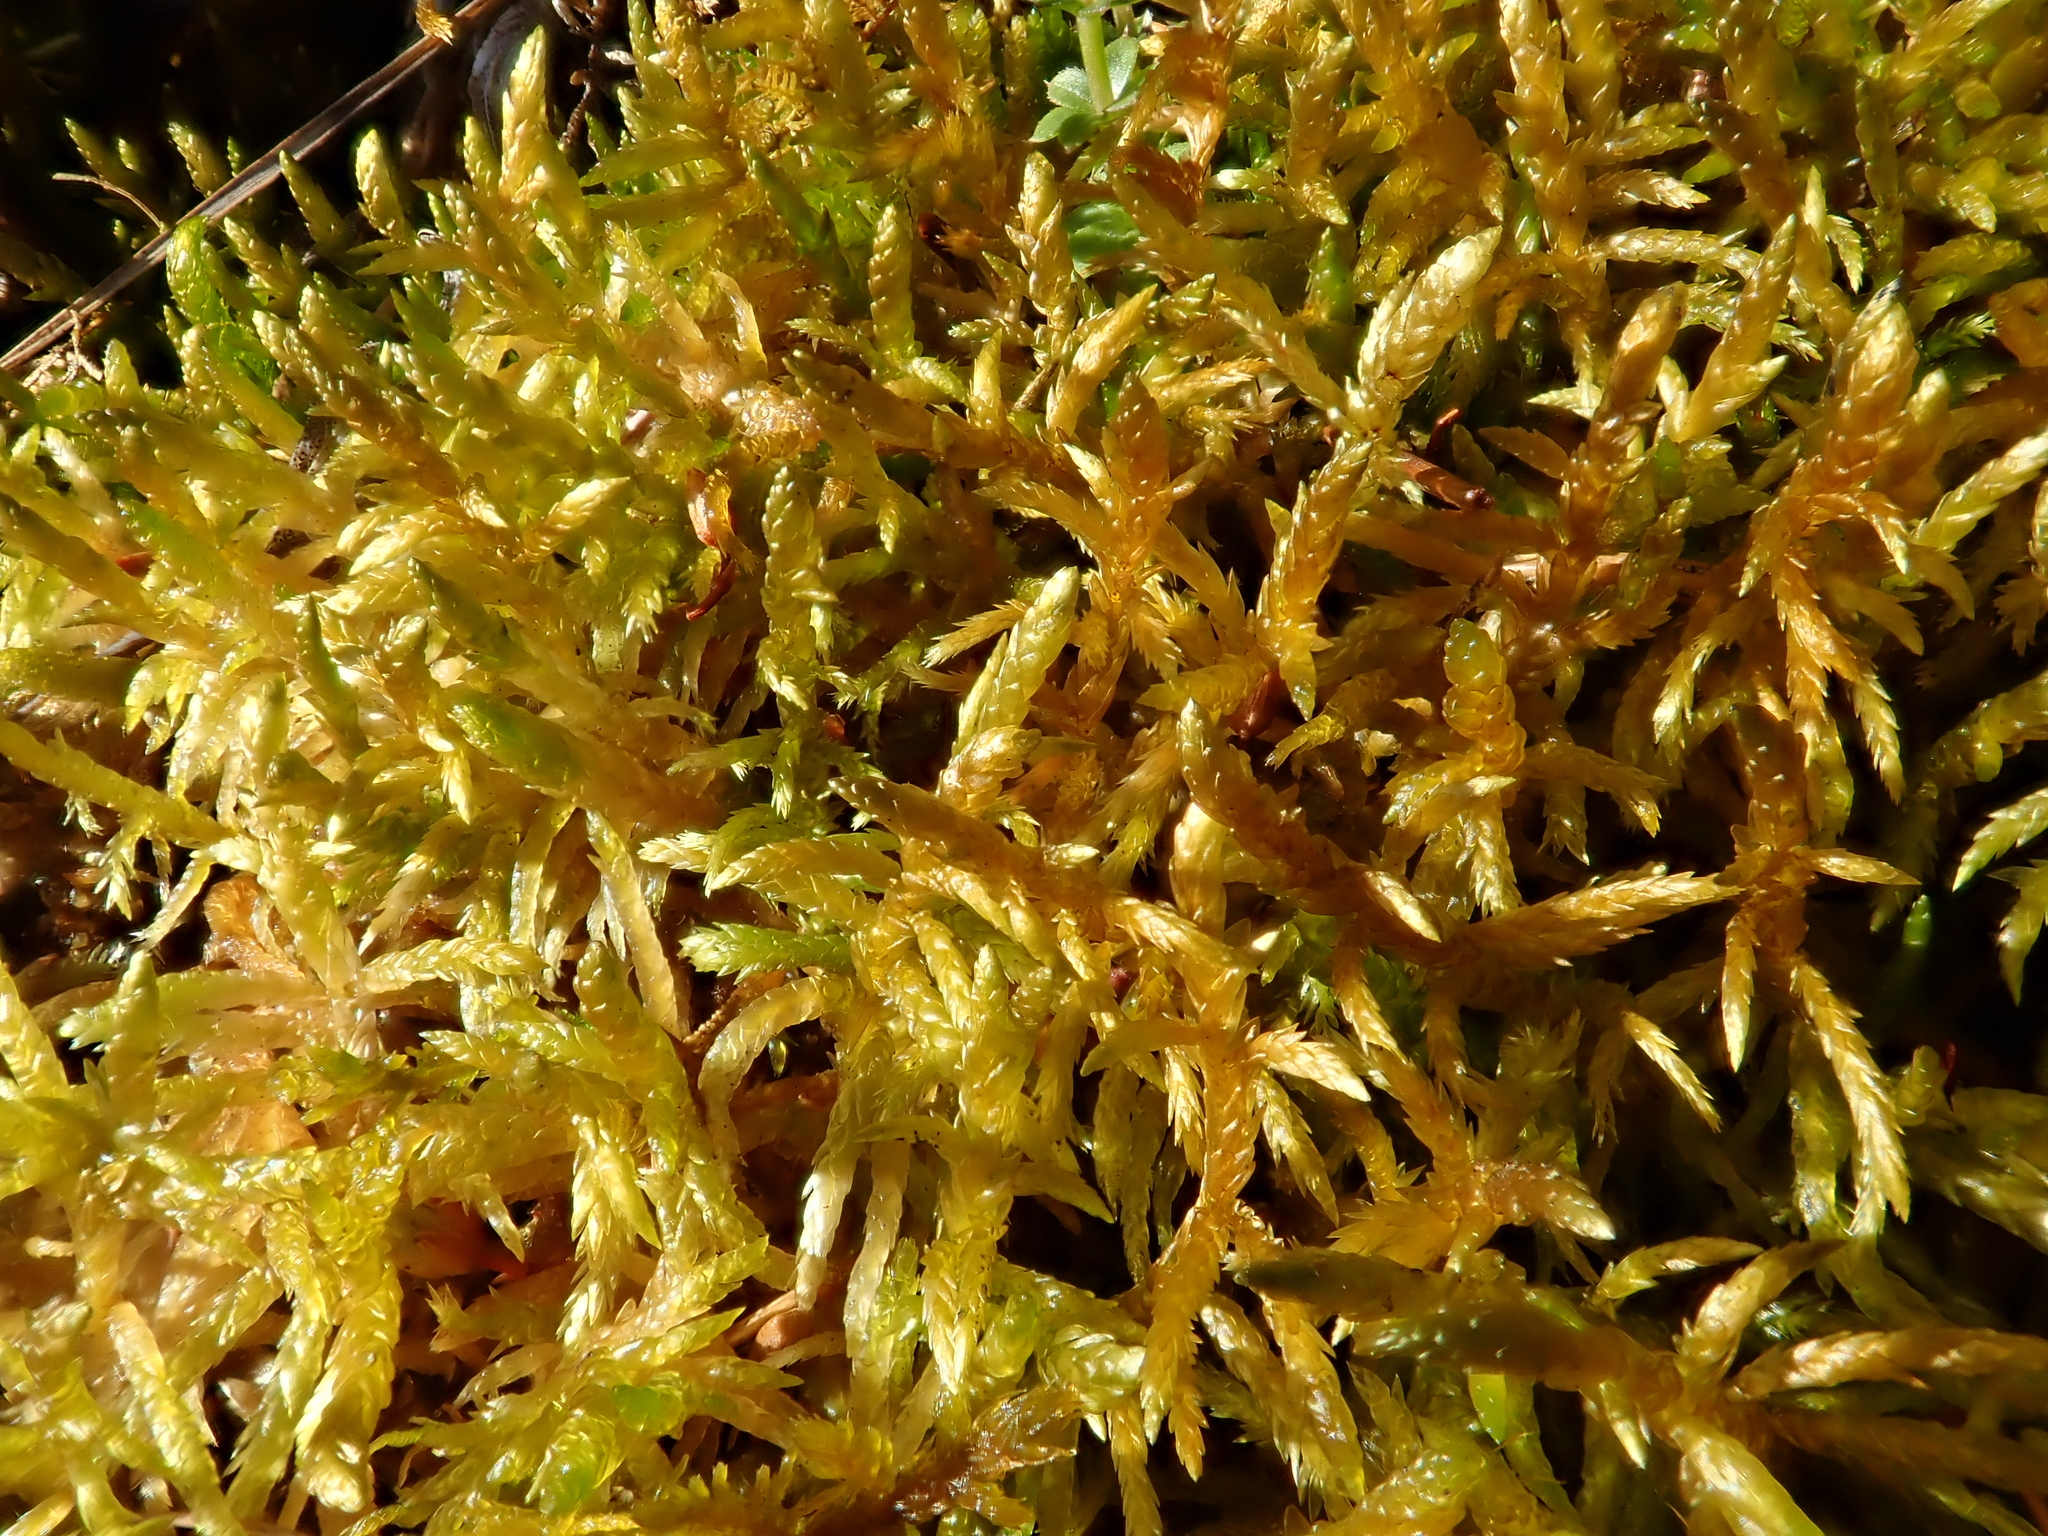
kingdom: Plantae
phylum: Bryophyta
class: Bryopsida
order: Hypnales
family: Entodontaceae
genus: Entodon
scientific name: Entodon concinnus
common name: Montagne's cylinder-moss
